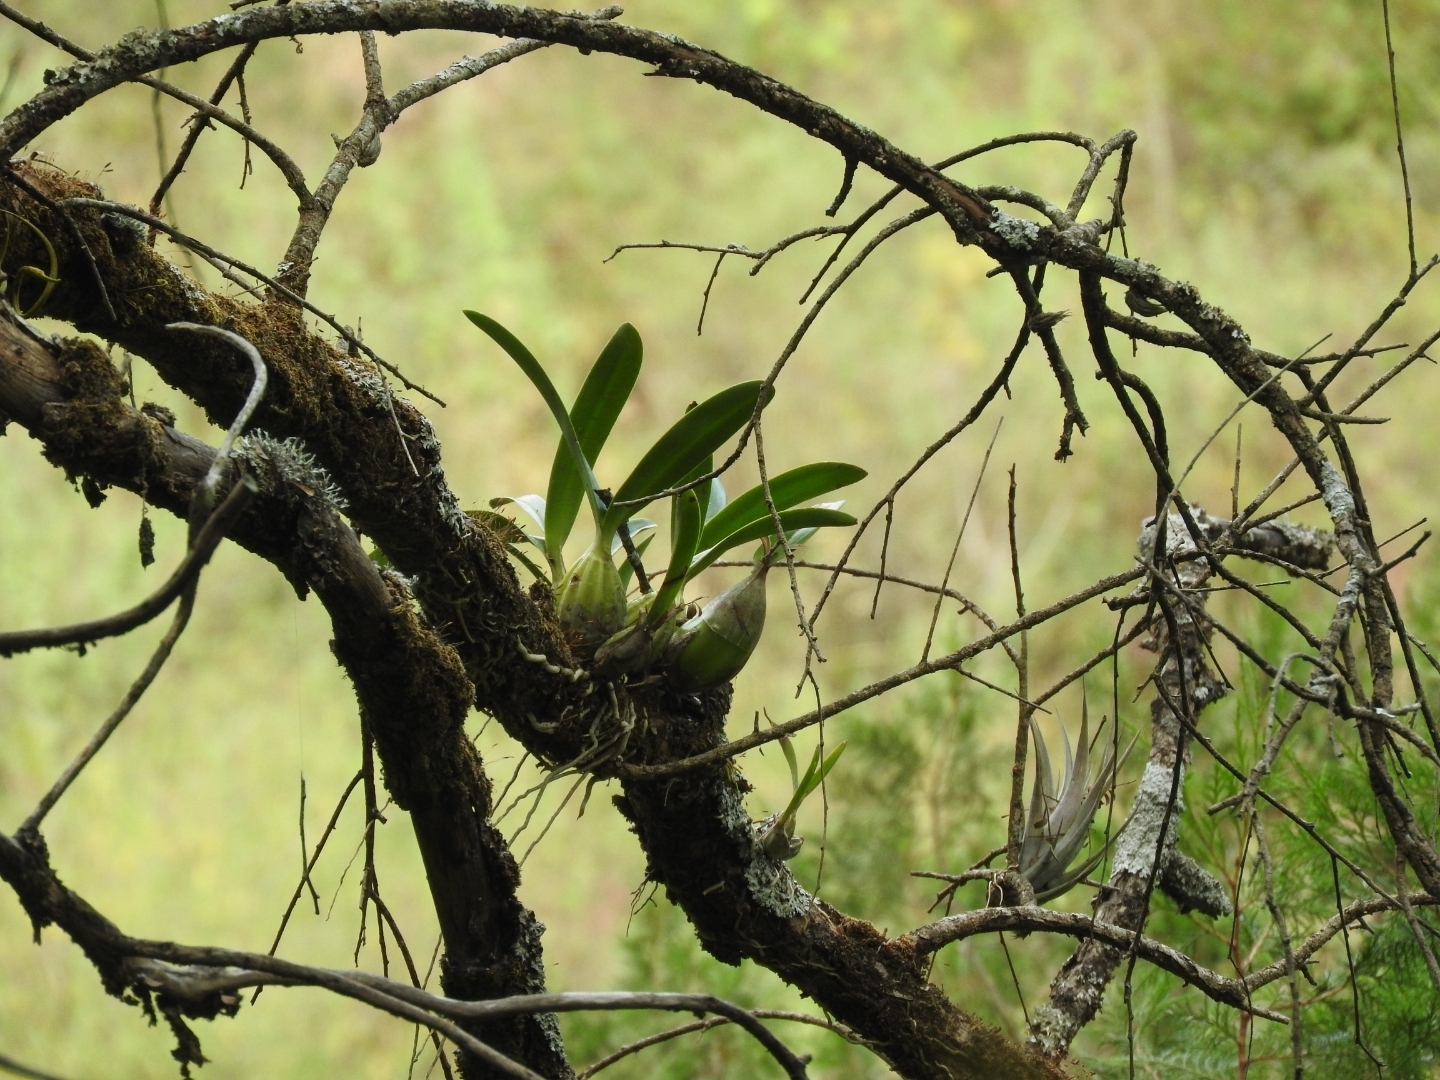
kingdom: Plantae
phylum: Tracheophyta
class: Liliopsida
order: Asparagales
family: Orchidaceae
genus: Laelia
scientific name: Laelia autumnalis
